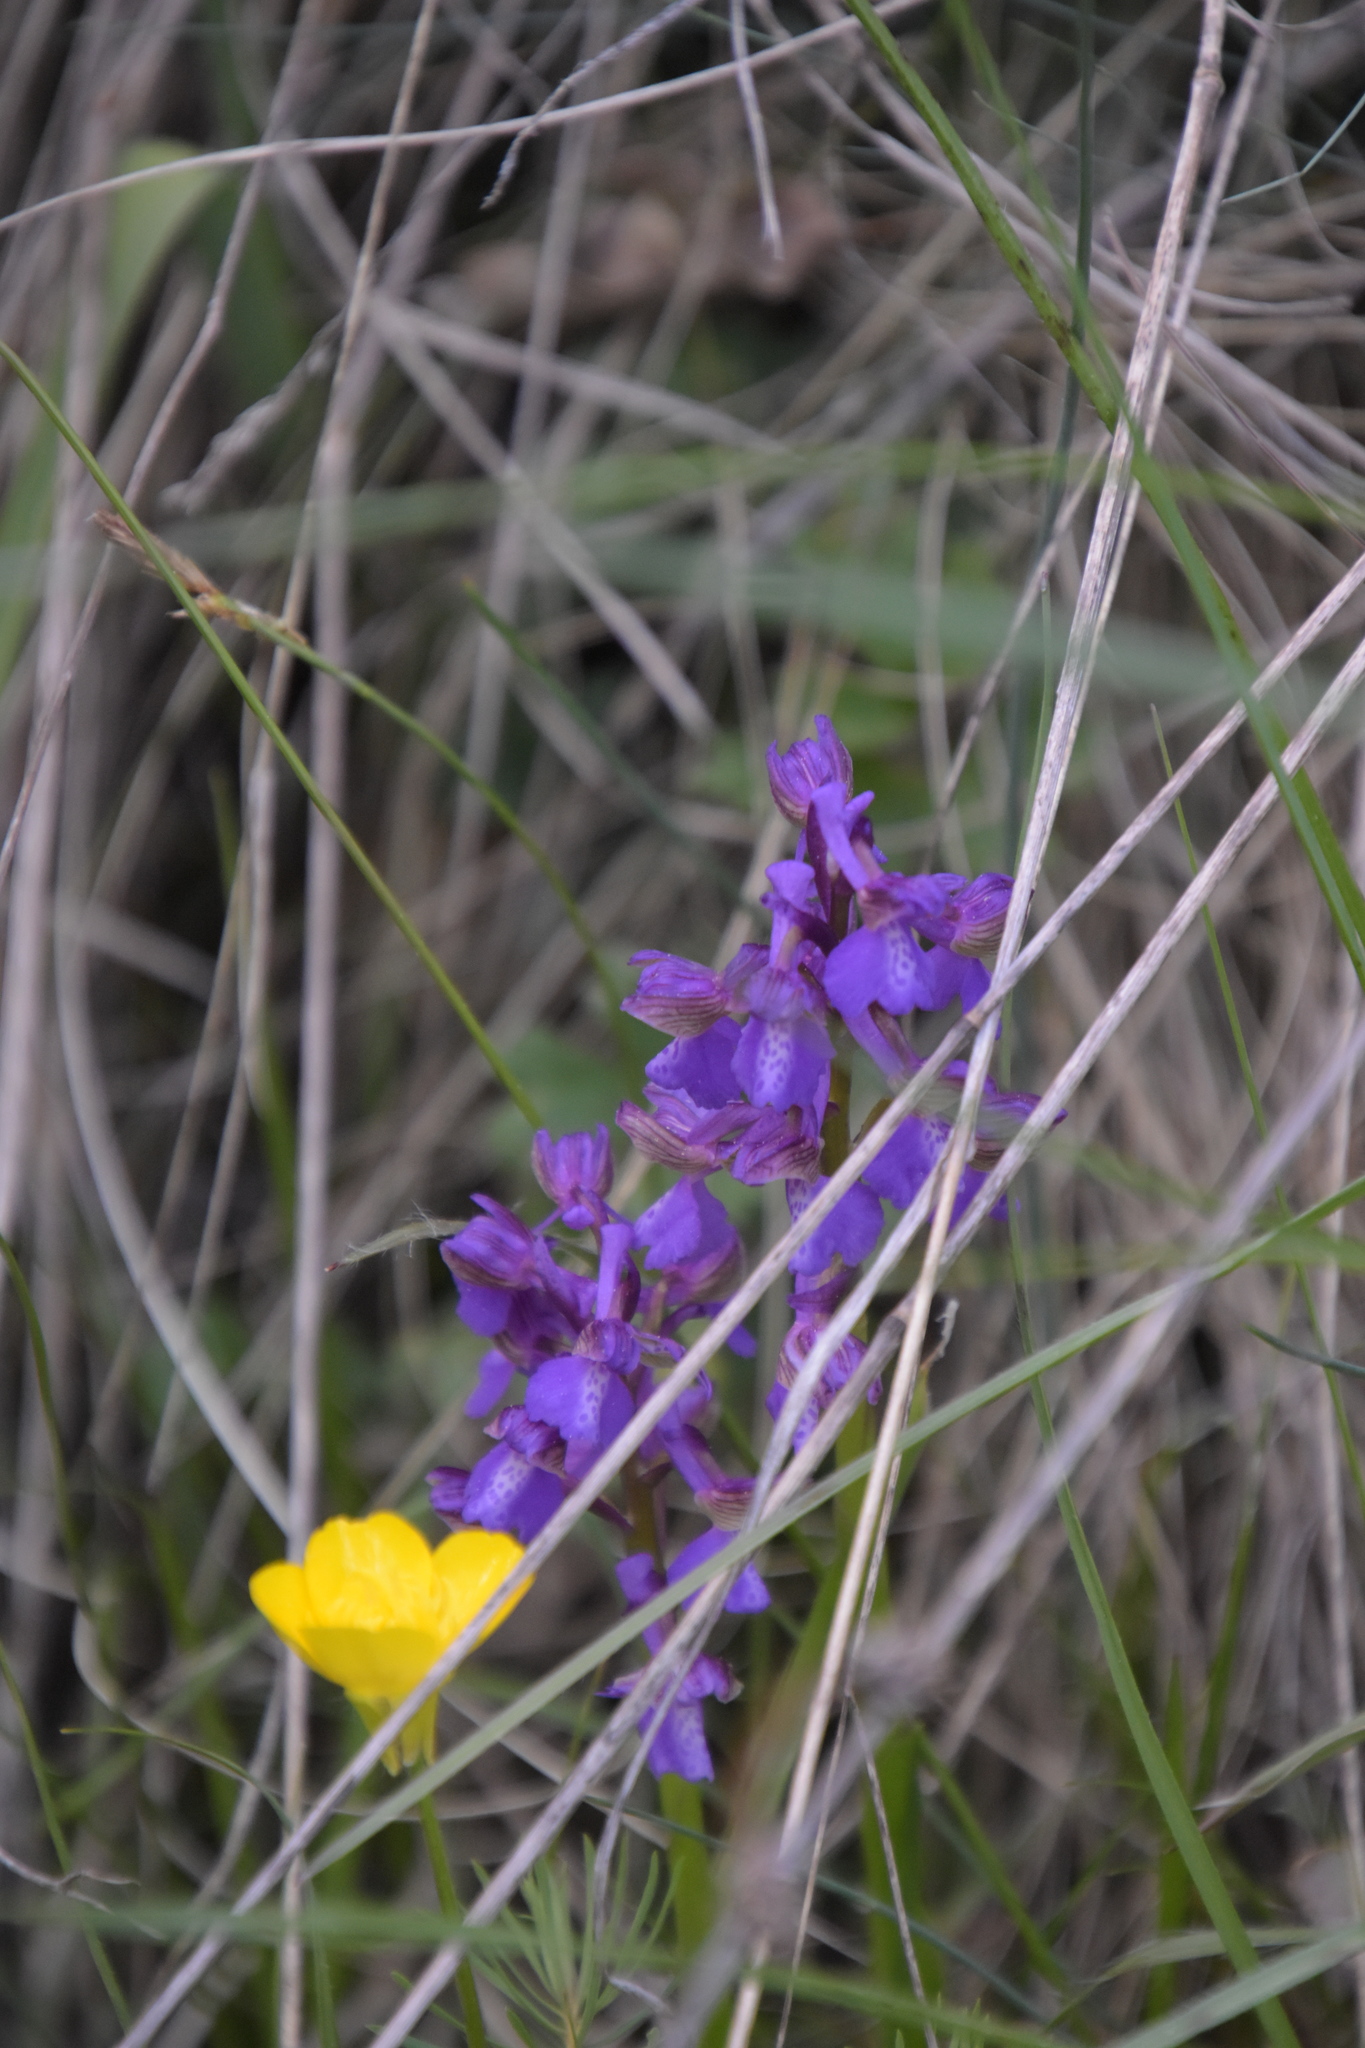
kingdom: Plantae
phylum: Tracheophyta
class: Liliopsida
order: Asparagales
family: Orchidaceae
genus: Anacamptis
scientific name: Anacamptis morio
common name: Green-winged orchid
